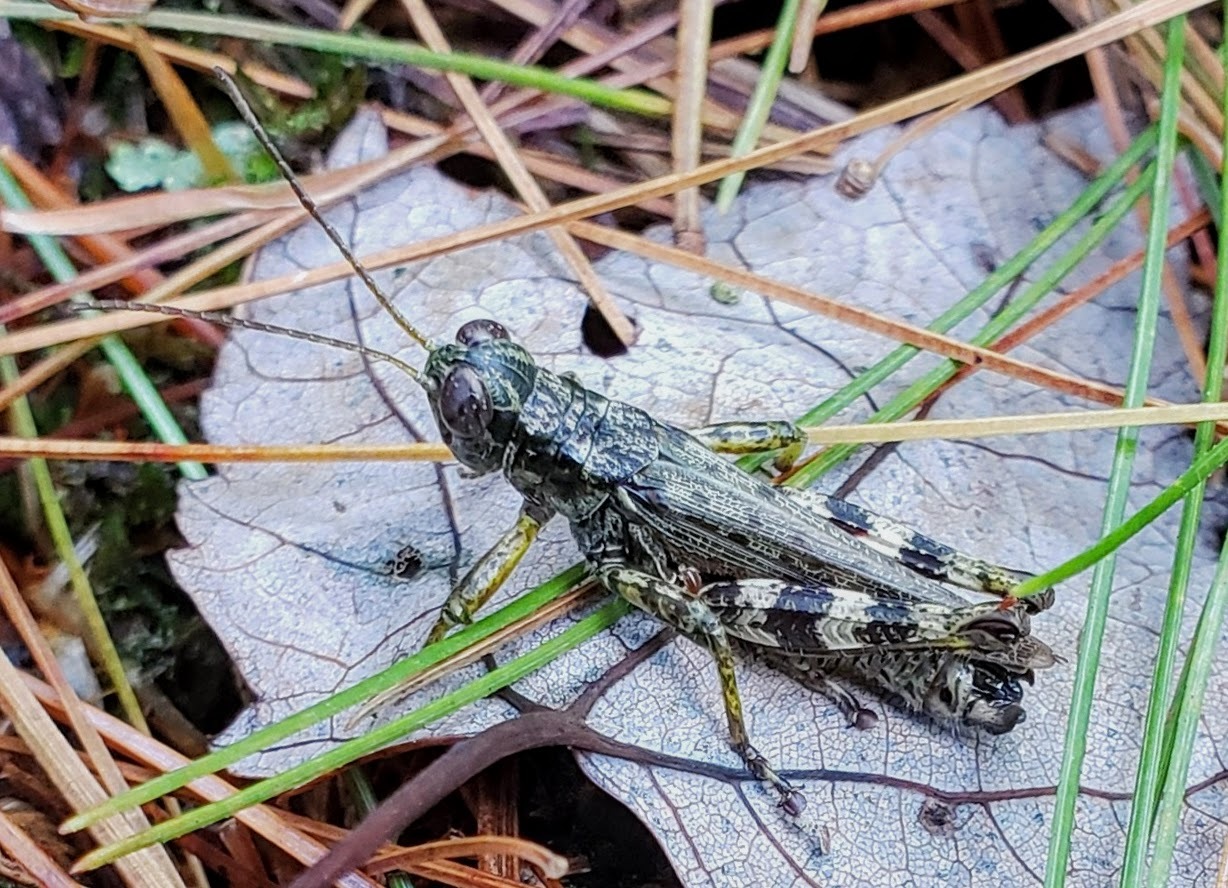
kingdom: Animalia
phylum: Arthropoda
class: Insecta
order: Orthoptera
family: Acrididae
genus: Melanoplus
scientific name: Melanoplus punctulatus
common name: Pine-tree spur-throat grasshopper
